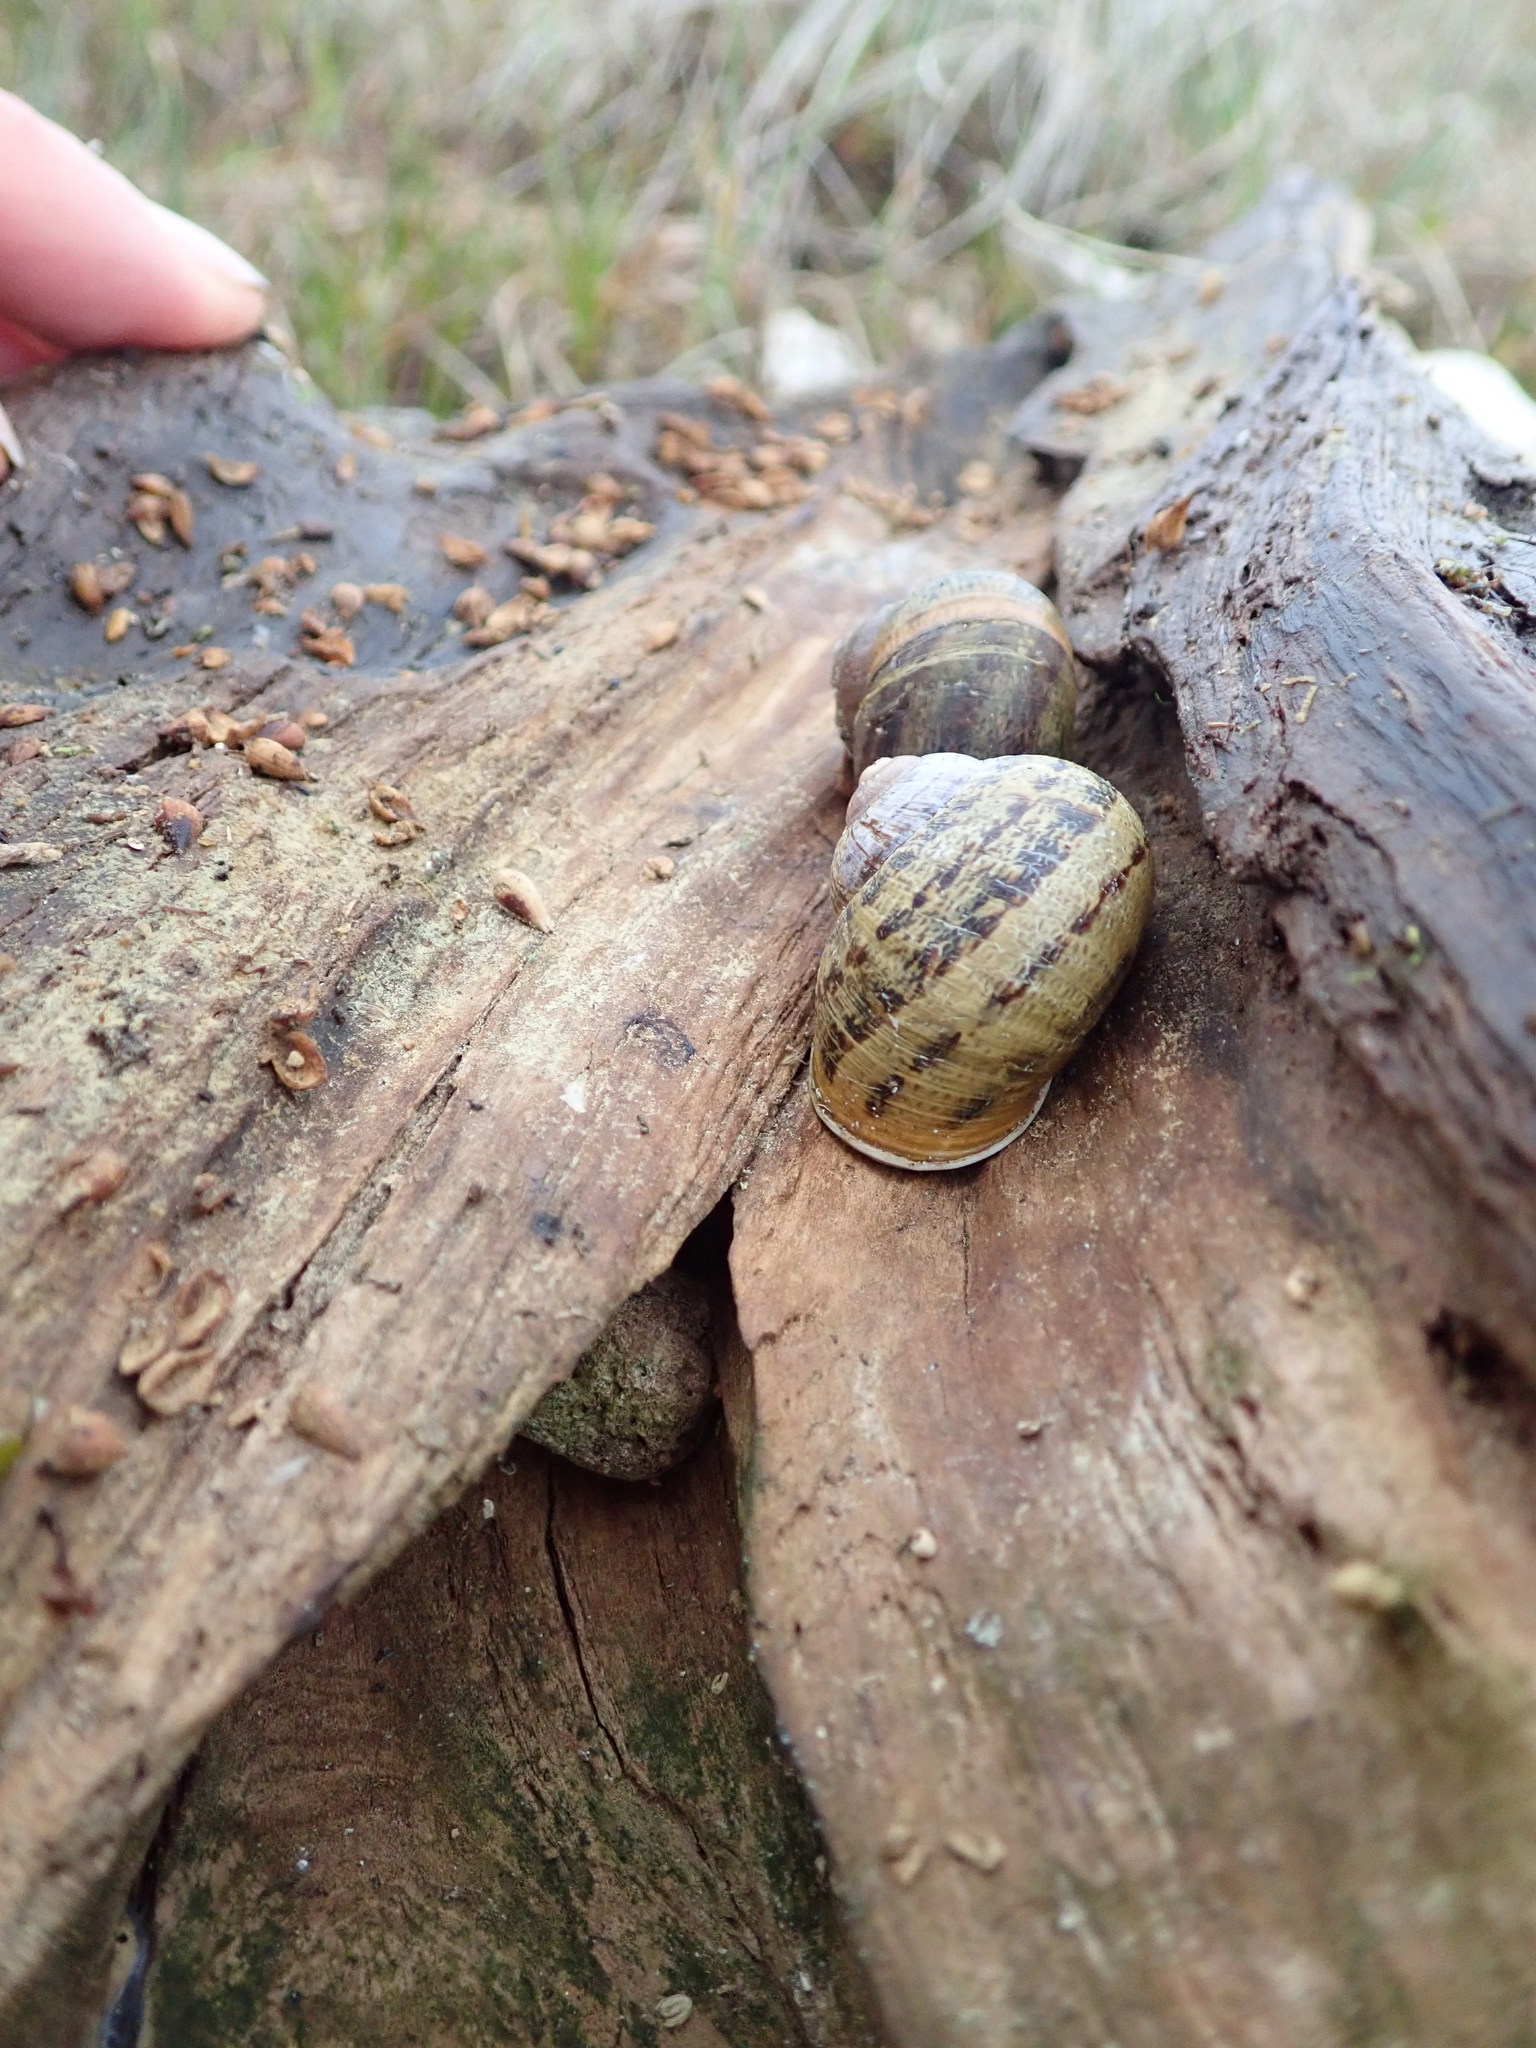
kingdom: Animalia
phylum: Mollusca
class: Gastropoda
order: Stylommatophora
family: Helicidae
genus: Cornu
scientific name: Cornu aspersum
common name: Brown garden snail
